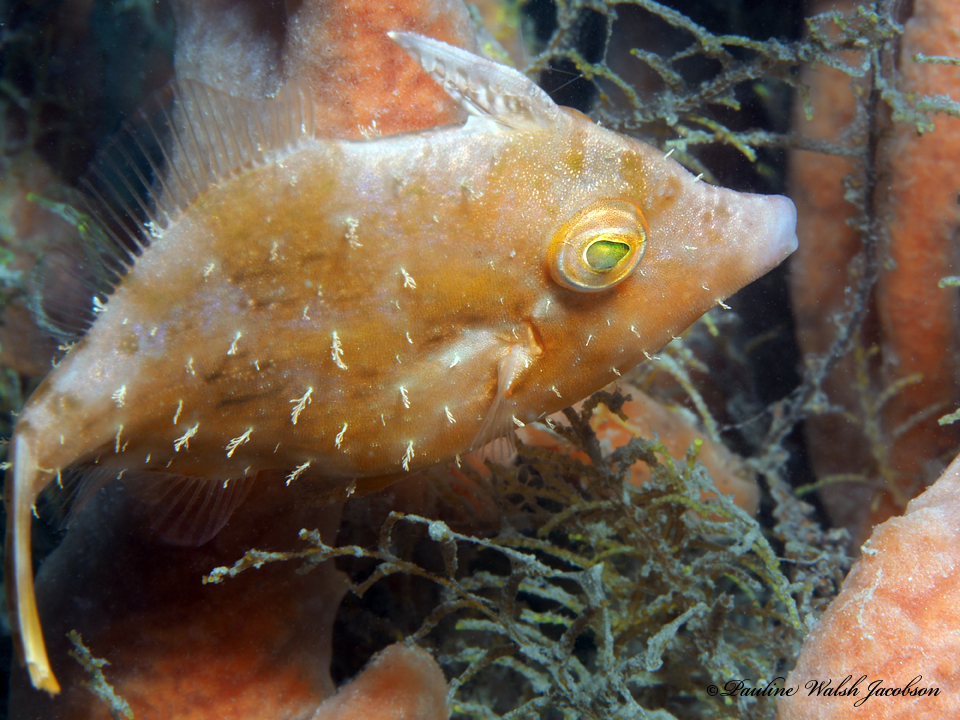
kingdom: Animalia
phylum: Chordata
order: Tetraodontiformes
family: Monacanthidae
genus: Stephanolepis
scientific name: Stephanolepis hispidus
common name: Planehead filefish
